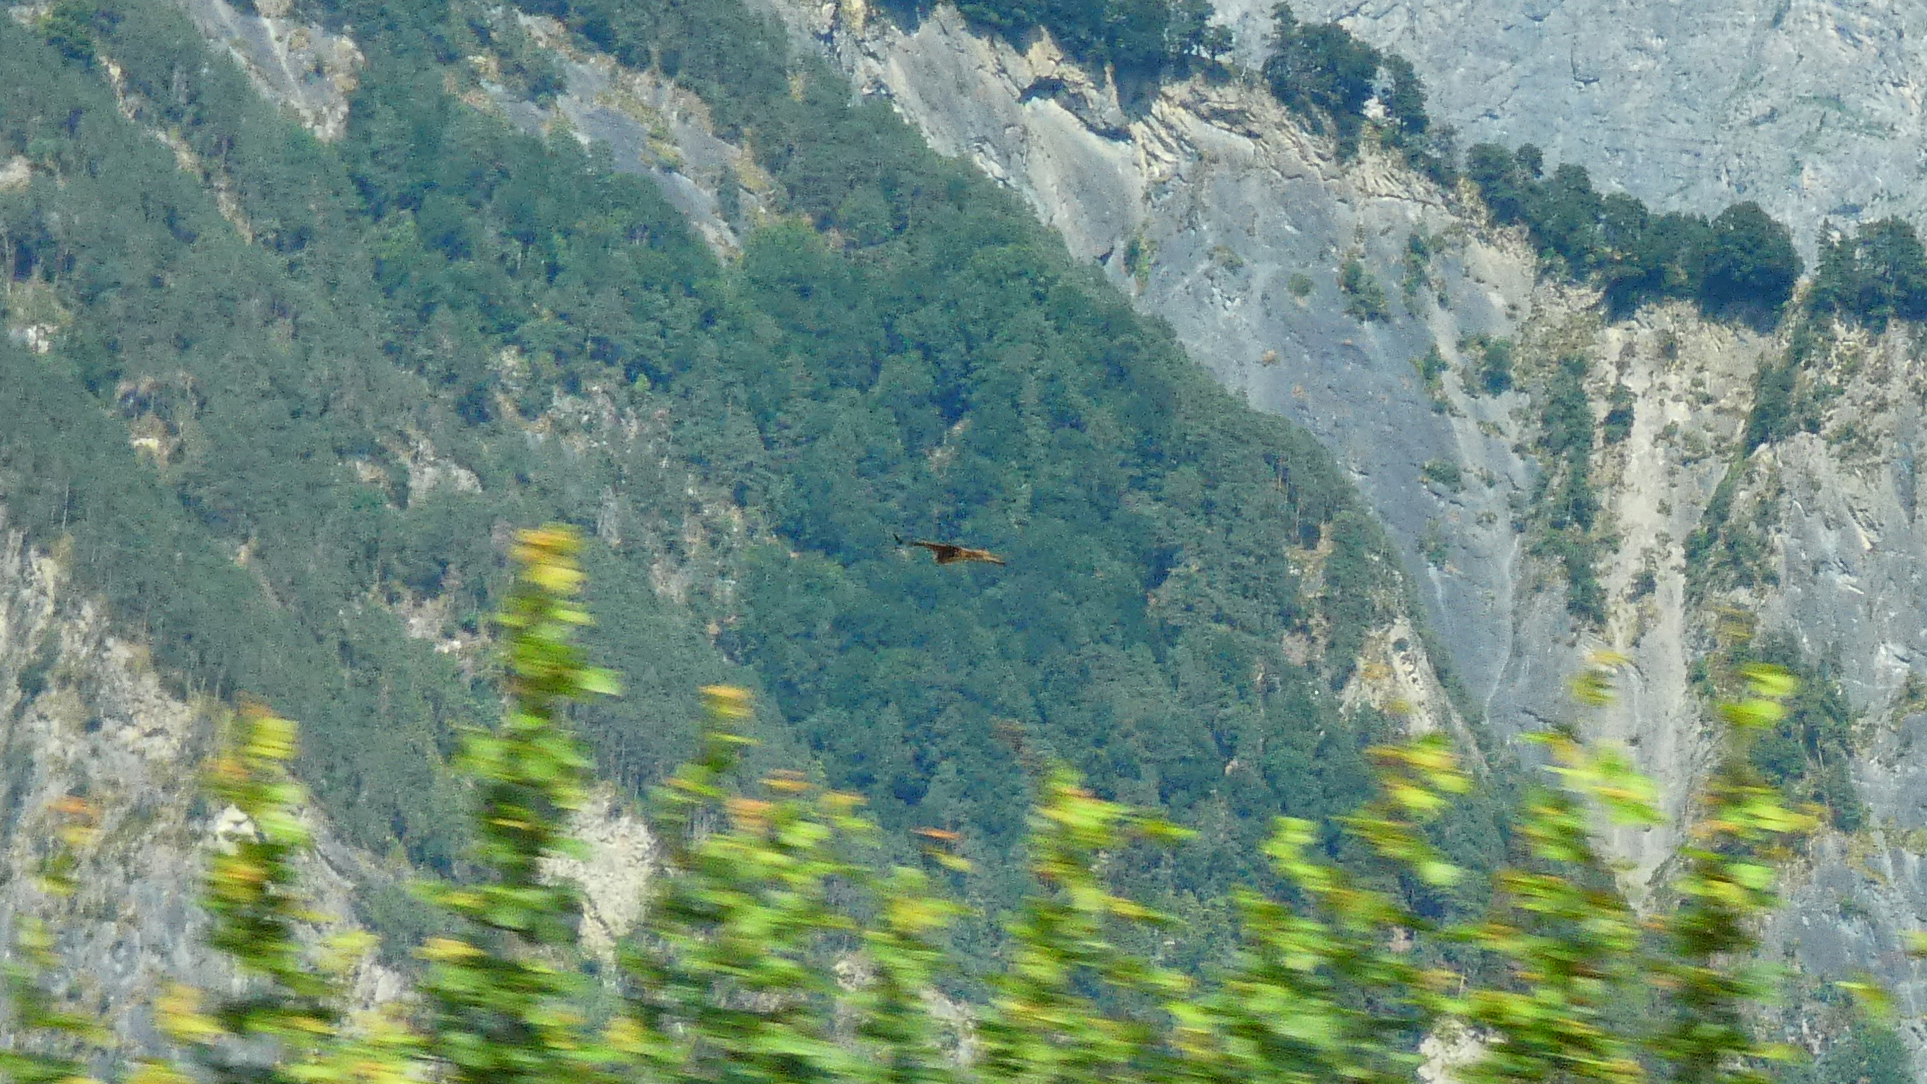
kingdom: Animalia
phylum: Chordata
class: Aves
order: Accipitriformes
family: Accipitridae
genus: Milvus
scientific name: Milvus milvus
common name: Red kite
